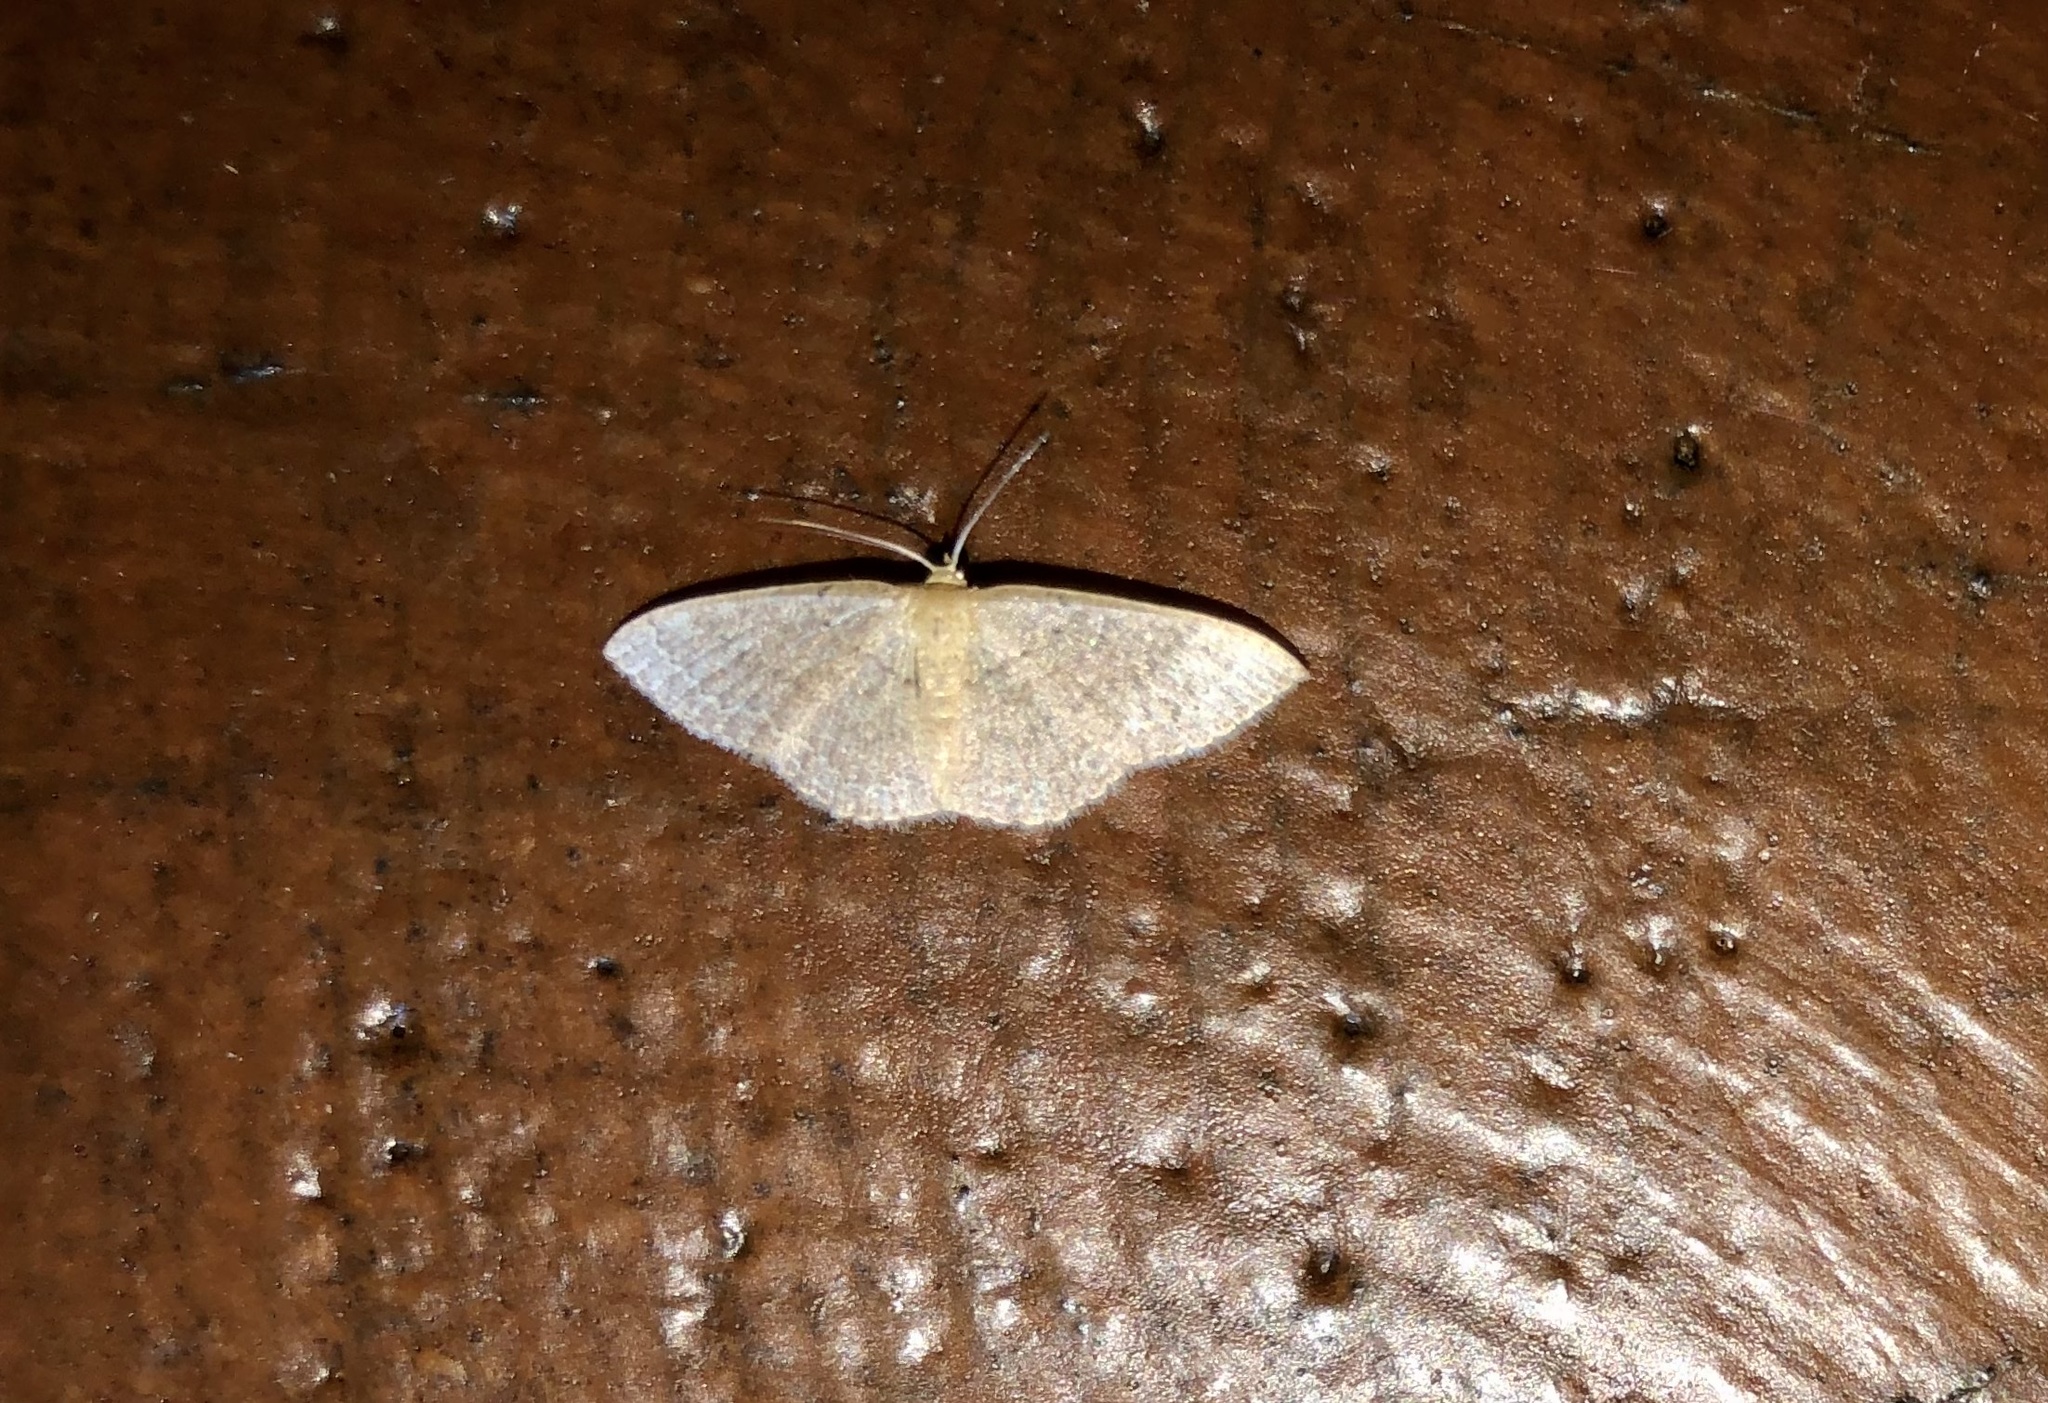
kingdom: Animalia
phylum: Arthropoda
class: Insecta
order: Lepidoptera
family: Geometridae
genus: Pleuroprucha
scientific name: Pleuroprucha insulsaria
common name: Common tan wave
